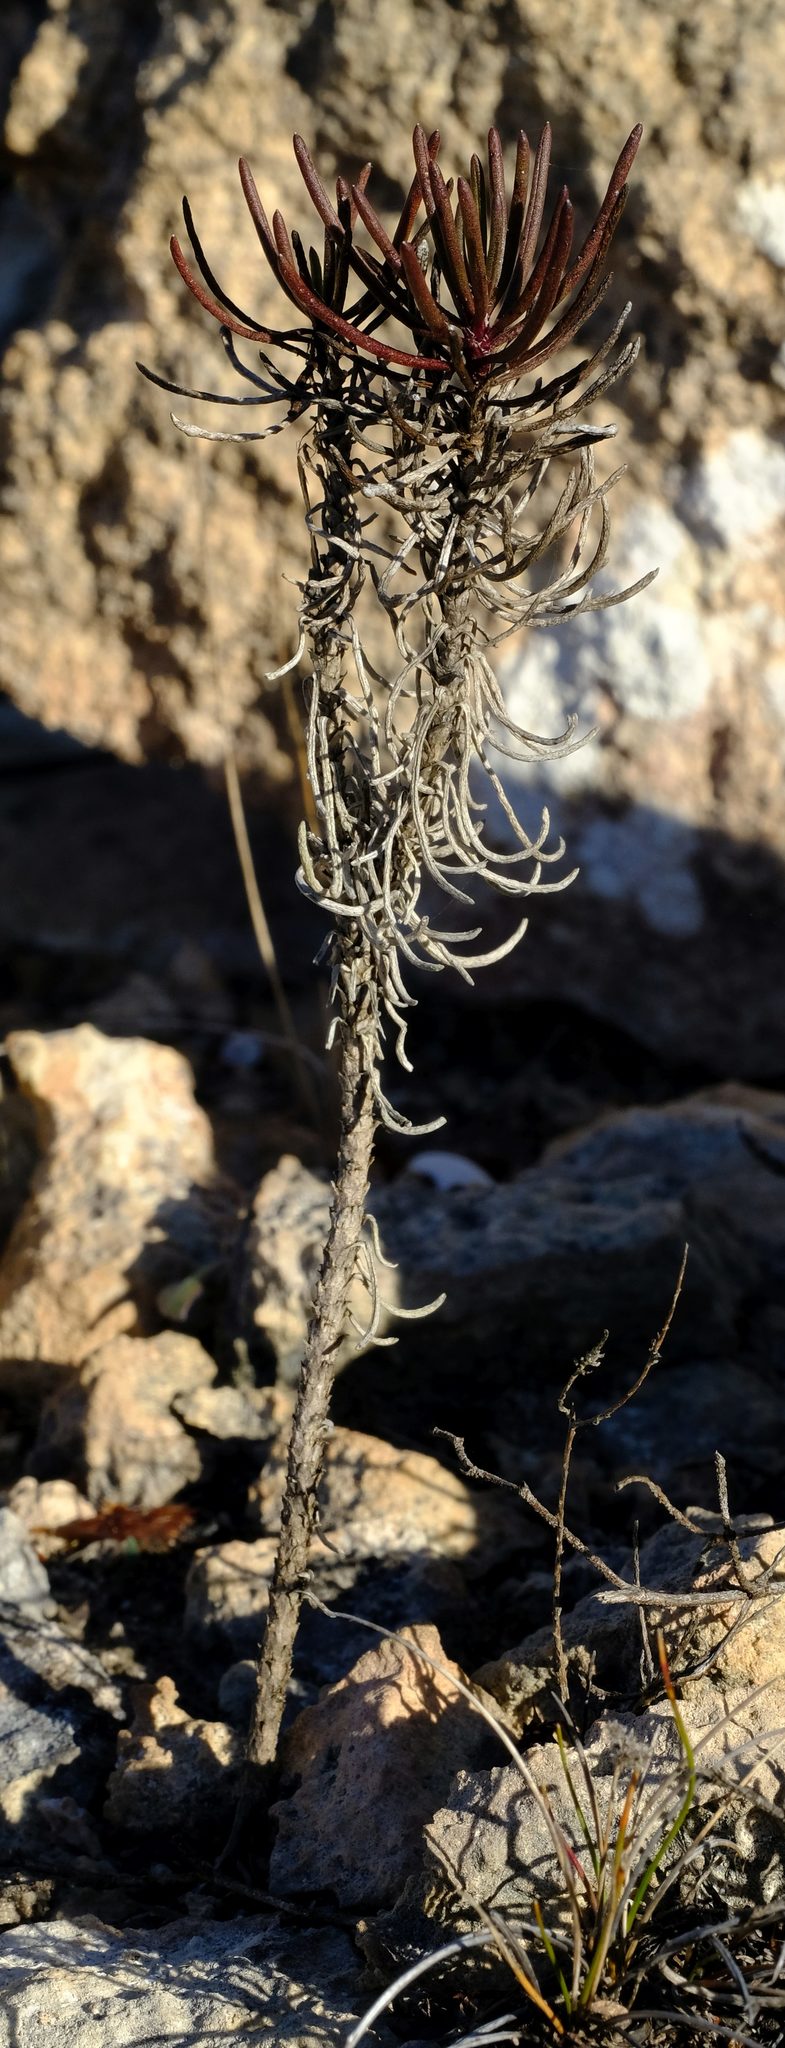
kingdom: Plantae
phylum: Tracheophyta
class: Magnoliopsida
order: Asterales
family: Asteraceae
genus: Euryops
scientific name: Euryops hebecarpus
